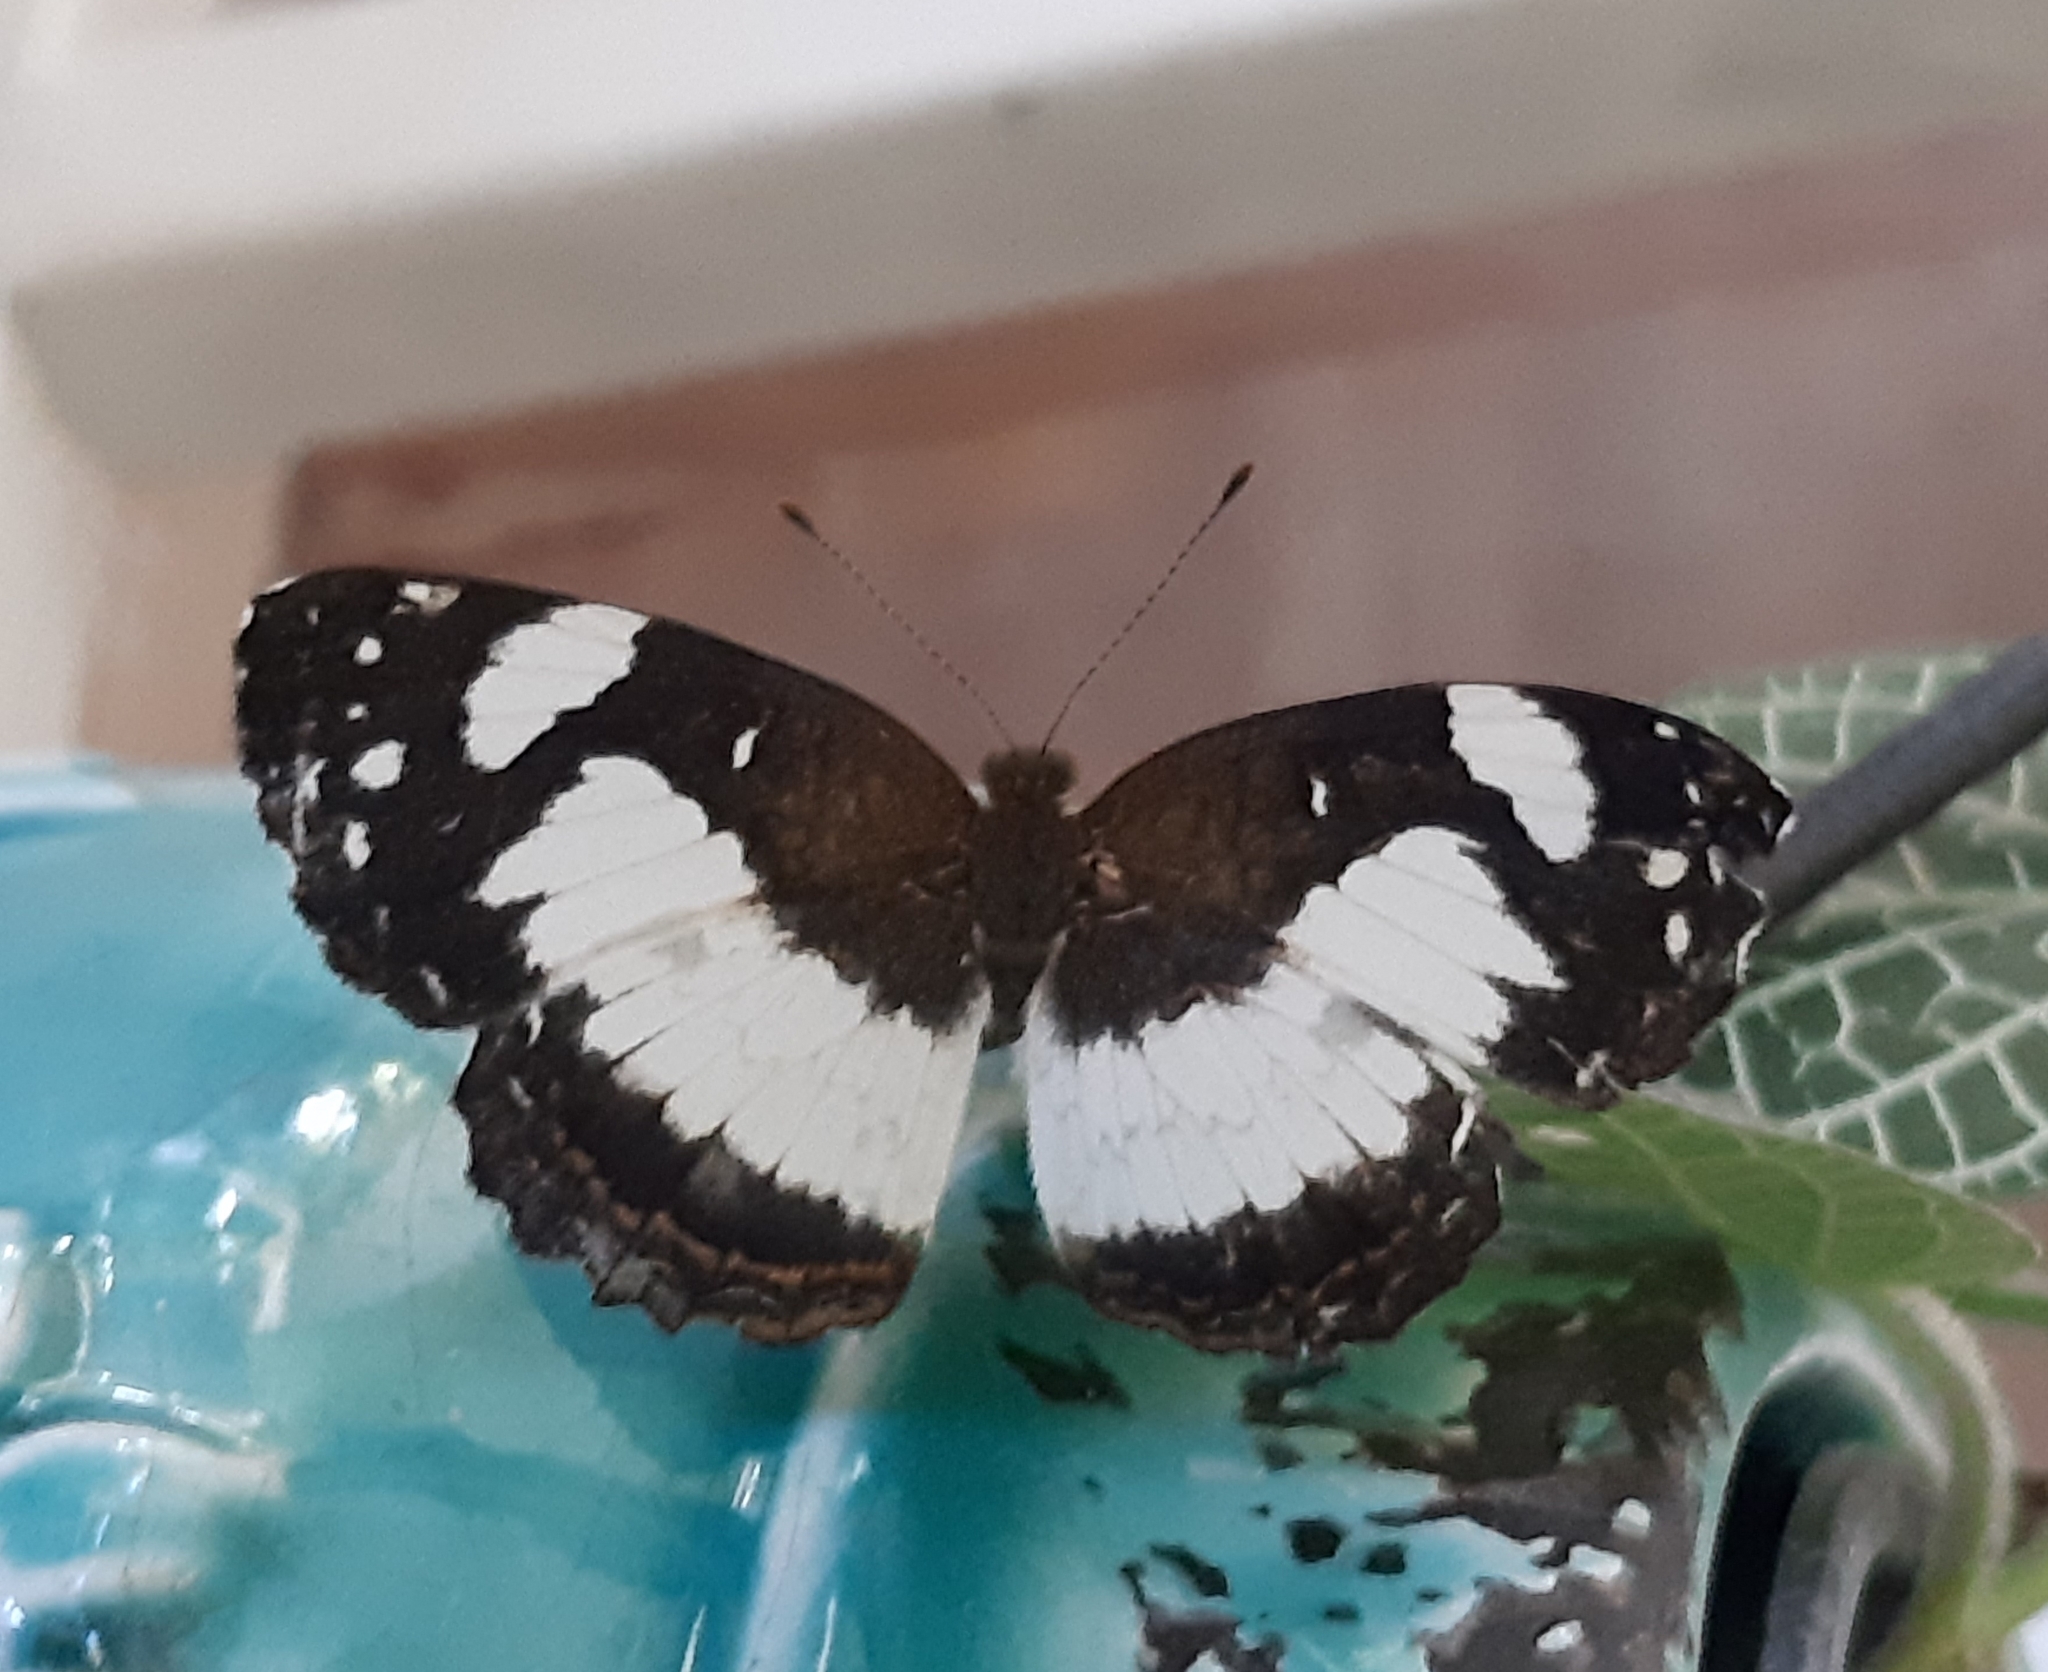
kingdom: Animalia
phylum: Arthropoda
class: Insecta
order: Lepidoptera
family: Nymphalidae
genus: Janatella
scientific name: Janatella leucodesma
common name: Whitened crescent
